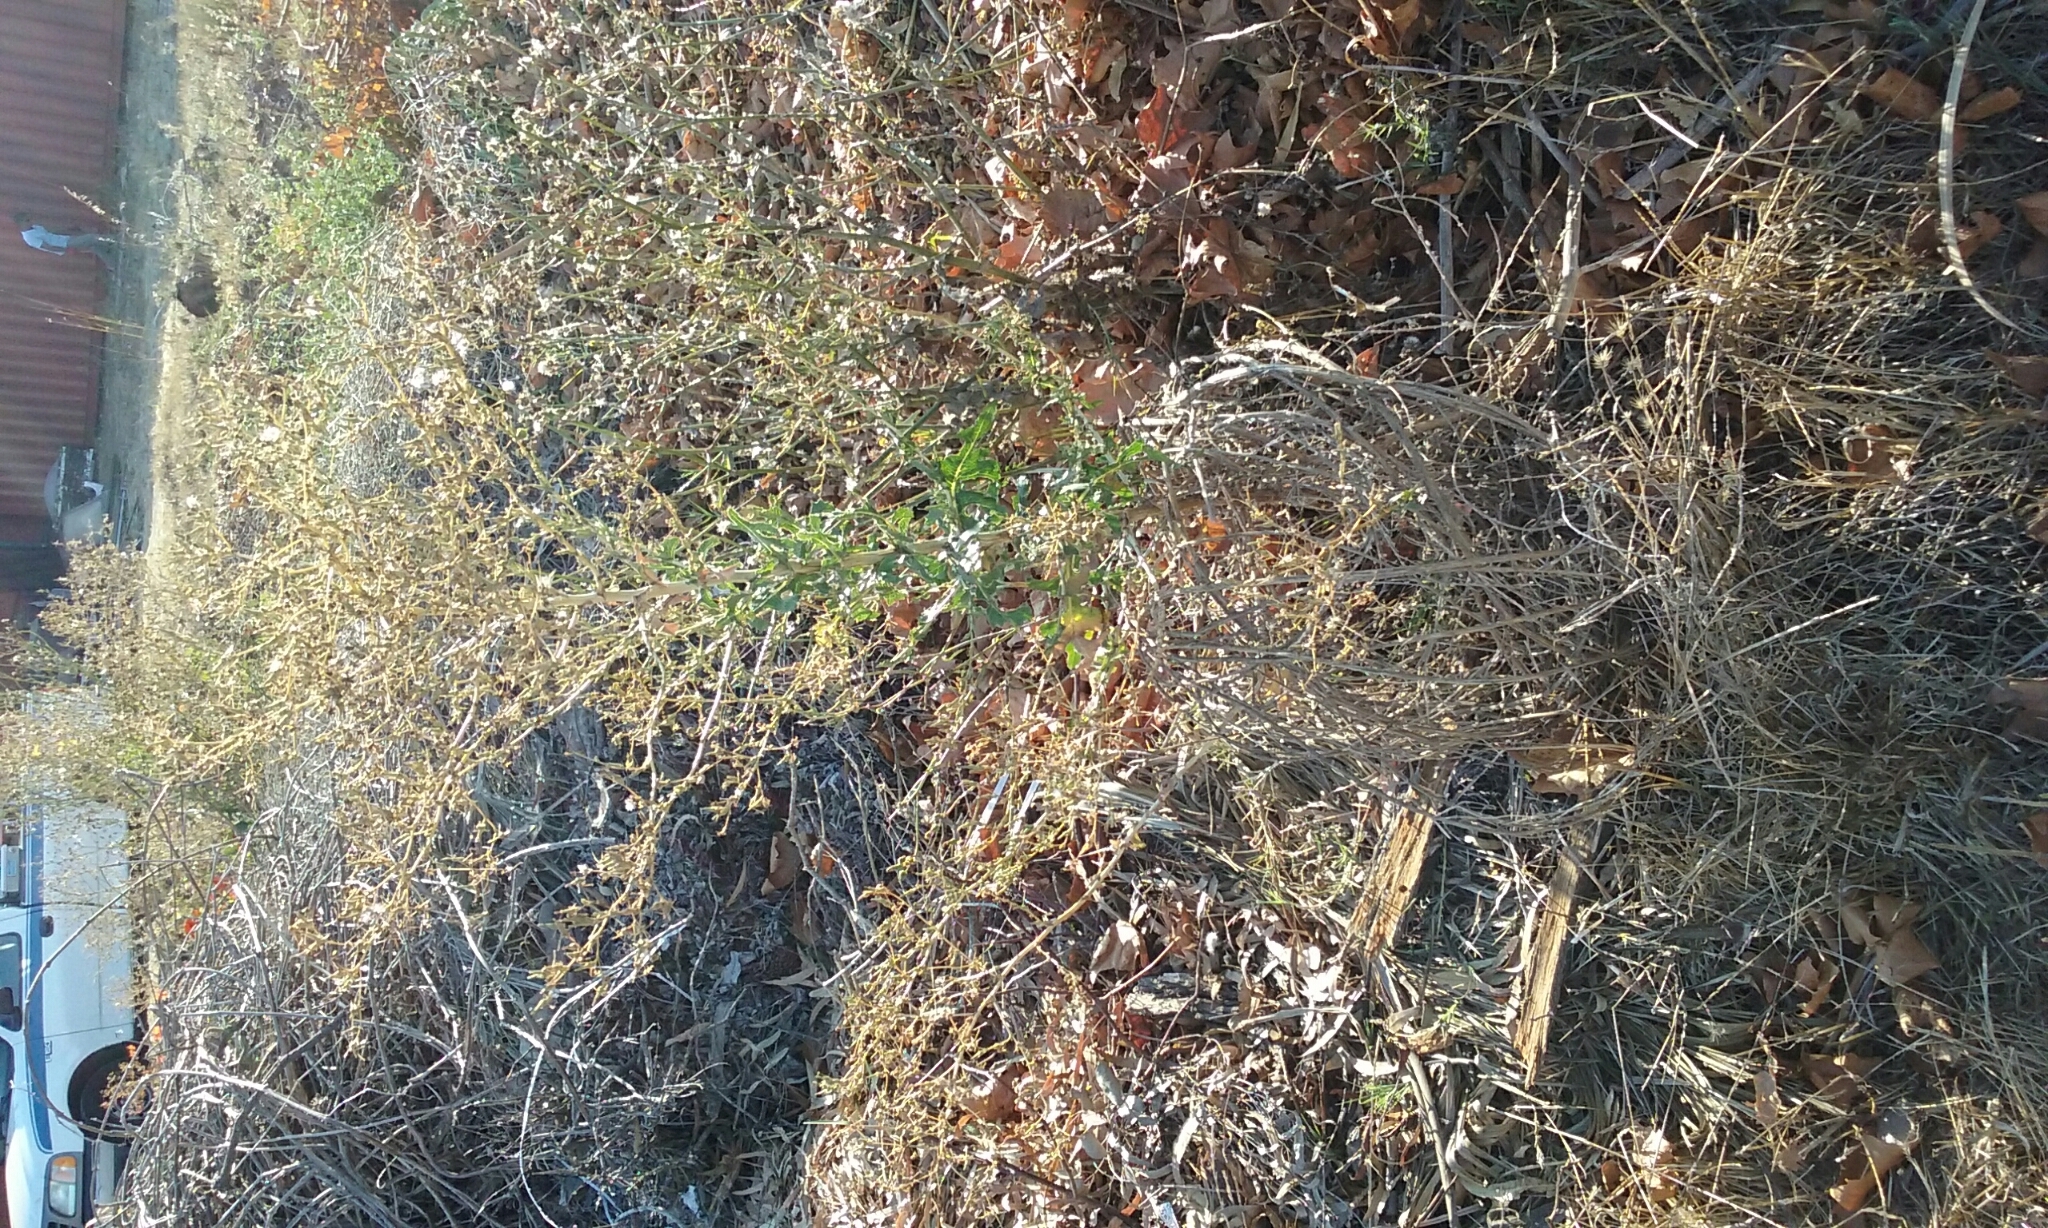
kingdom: Plantae
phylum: Tracheophyta
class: Magnoliopsida
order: Asterales
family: Asteraceae
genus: Lactuca
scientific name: Lactuca serriola
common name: Prickly lettuce
